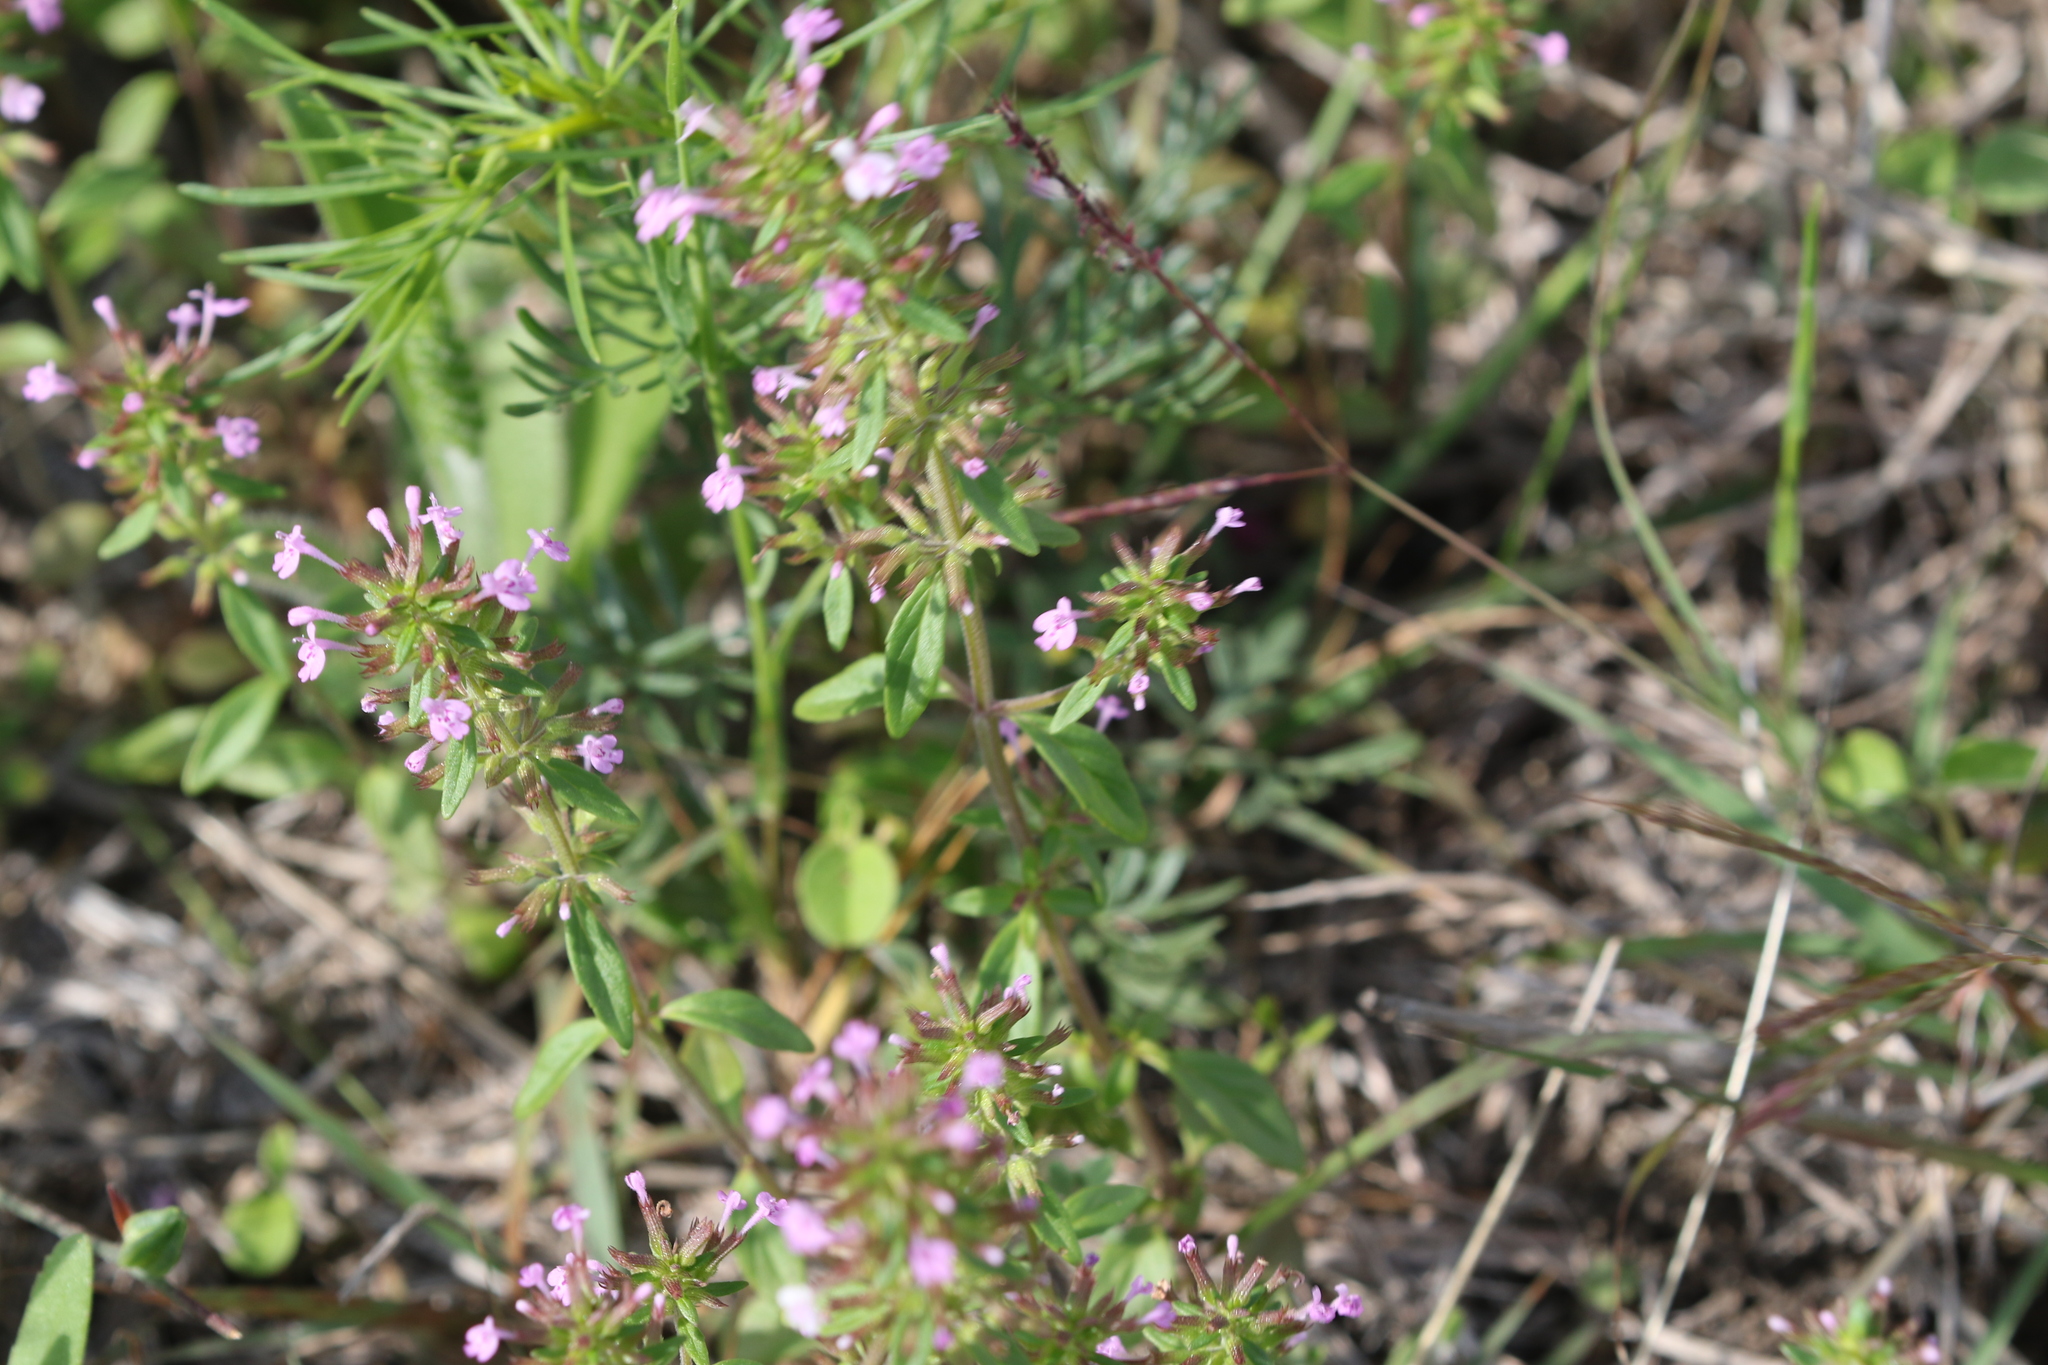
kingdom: Plantae
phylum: Tracheophyta
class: Magnoliopsida
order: Lamiales
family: Lamiaceae
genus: Hedeoma
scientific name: Hedeoma acinoides
